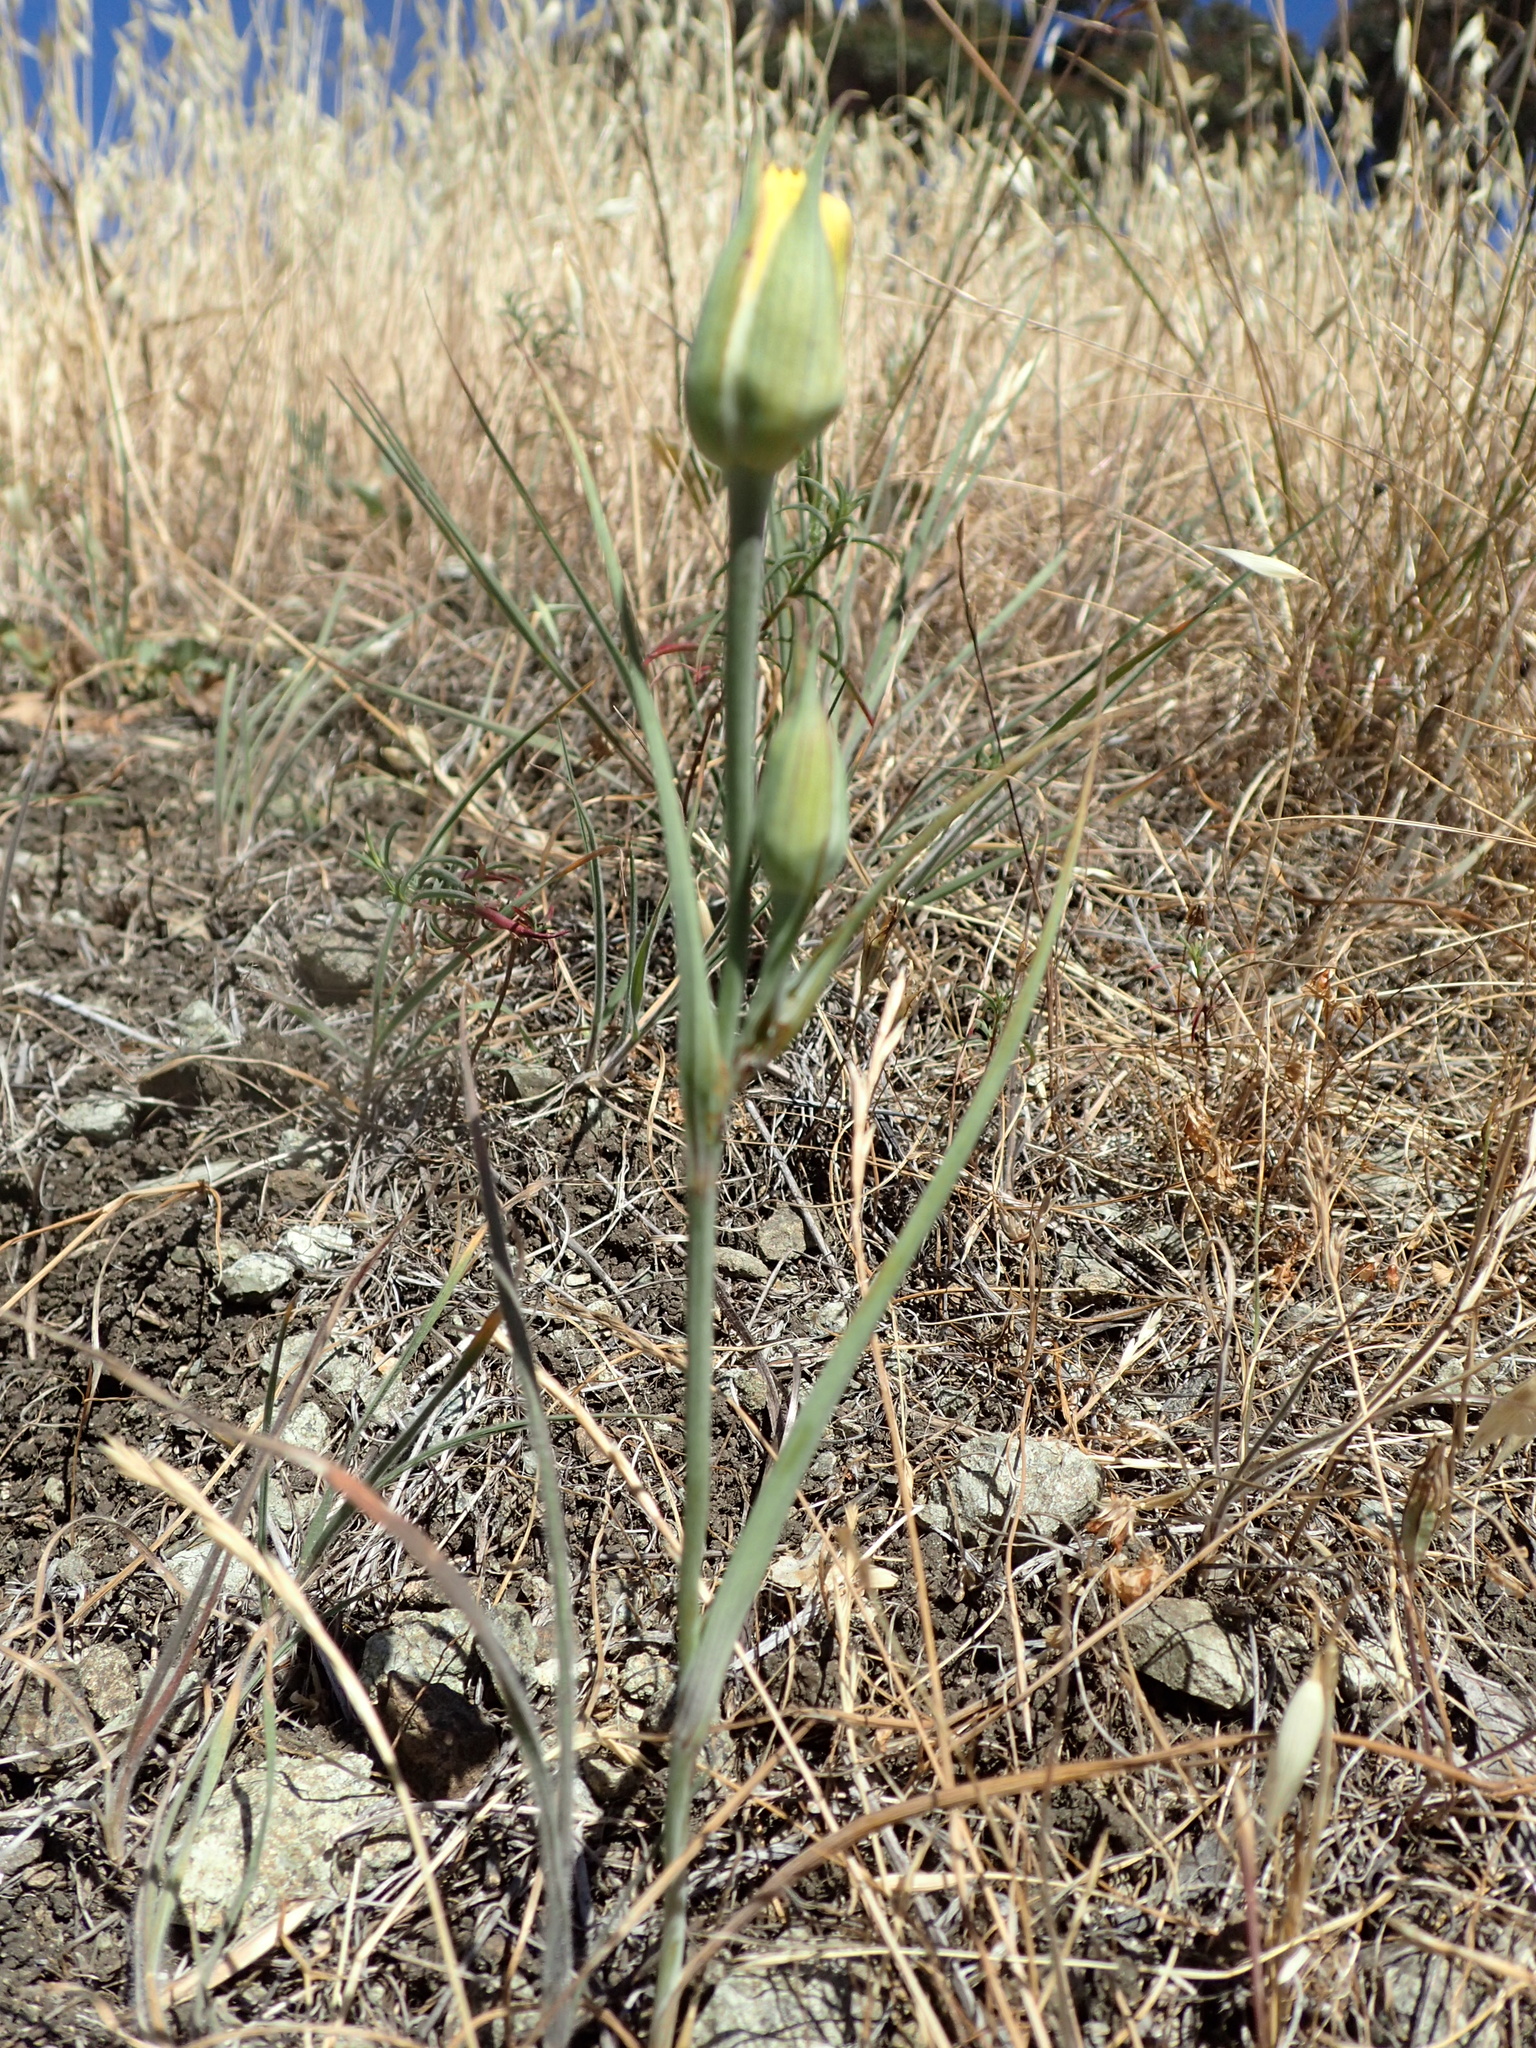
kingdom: Plantae
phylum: Tracheophyta
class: Liliopsida
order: Liliales
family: Liliaceae
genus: Calochortus
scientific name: Calochortus luteus
